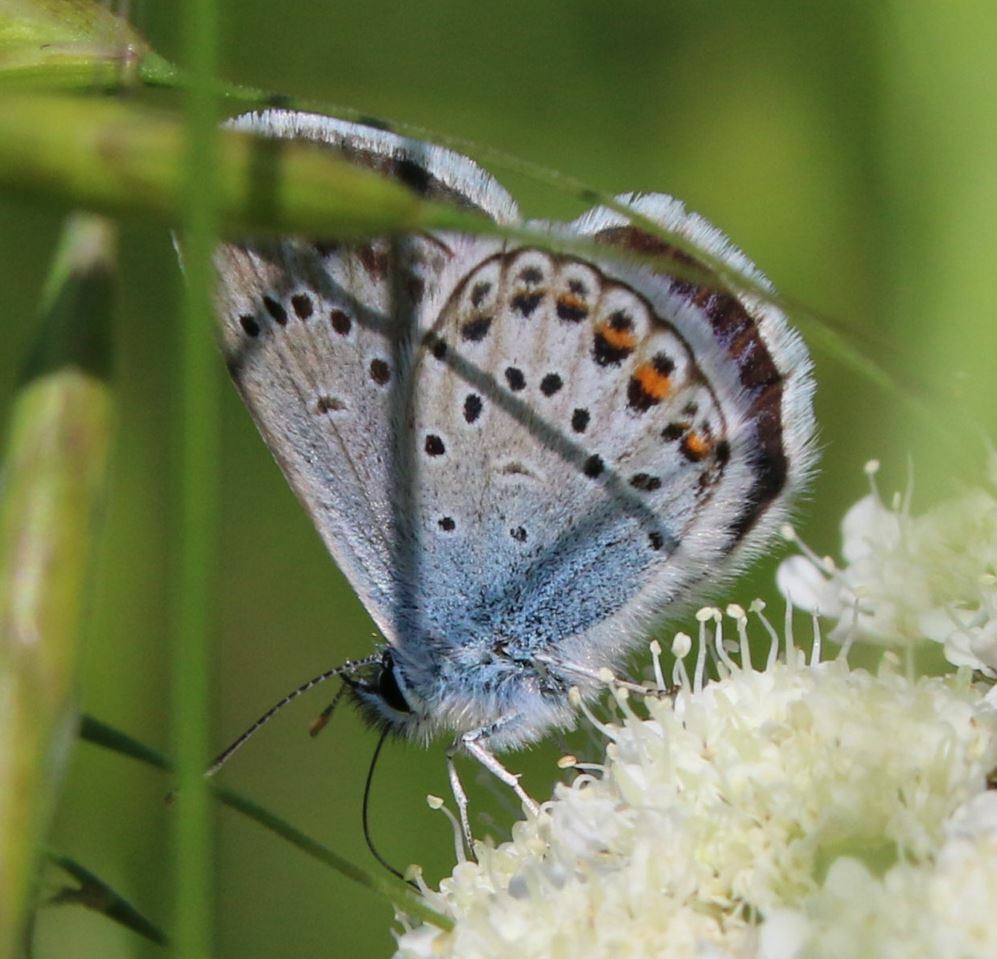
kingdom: Animalia
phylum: Arthropoda
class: Insecta
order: Lepidoptera
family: Lycaenidae
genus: Plebejus
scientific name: Plebejus argus
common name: Silver-studded blue
